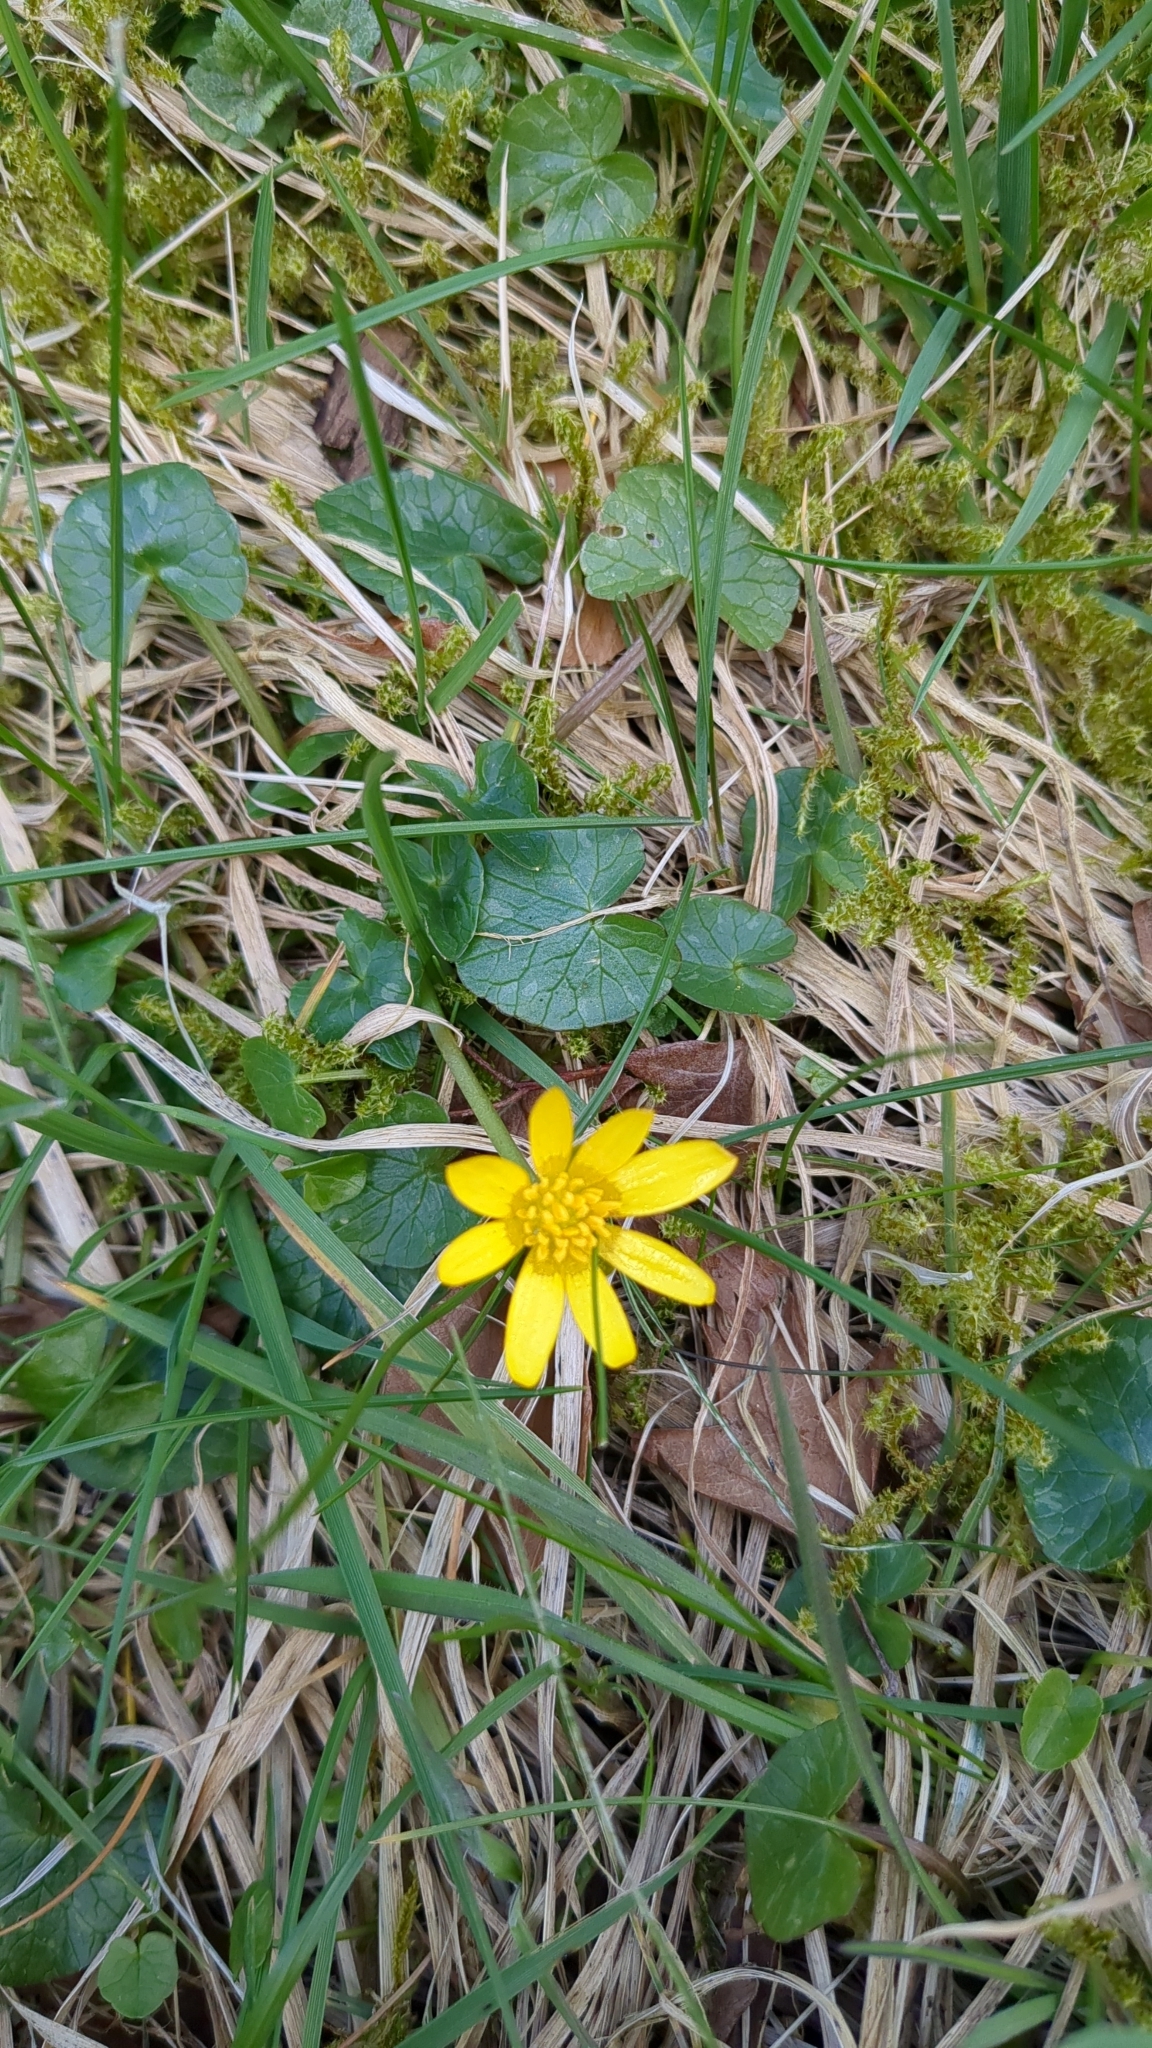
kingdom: Plantae
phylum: Tracheophyta
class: Magnoliopsida
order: Ranunculales
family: Ranunculaceae
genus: Ficaria
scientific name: Ficaria verna
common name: Lesser celandine
